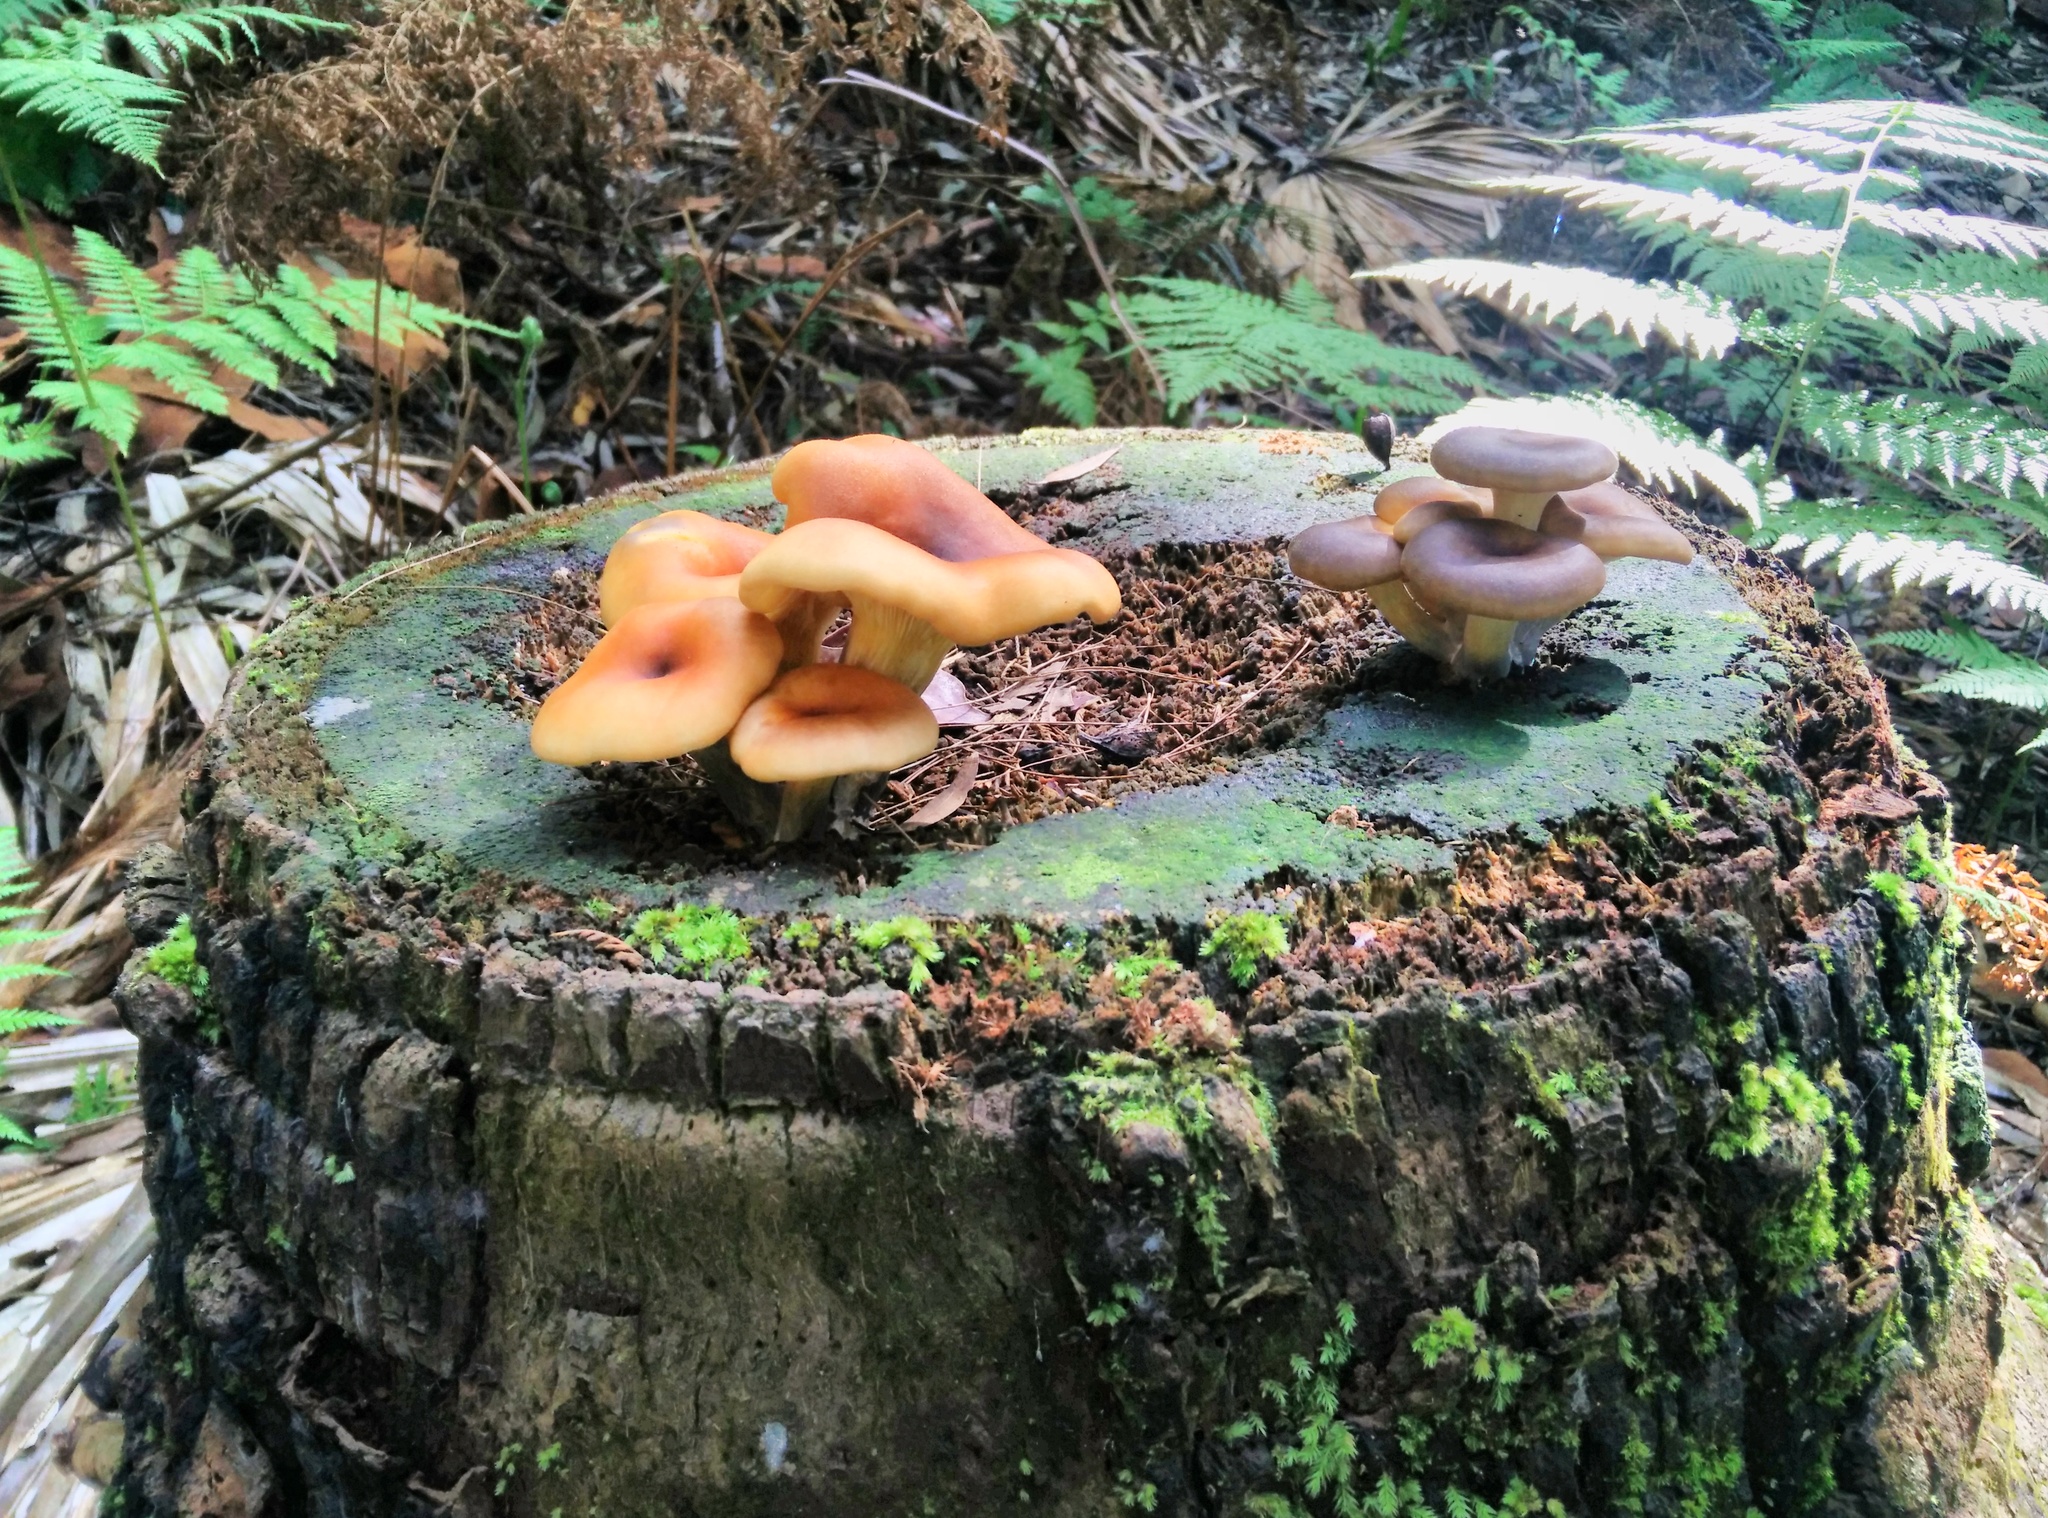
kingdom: Fungi
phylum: Basidiomycota
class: Agaricomycetes
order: Agaricales
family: Omphalotaceae
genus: Omphalotus
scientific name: Omphalotus nidiformis
